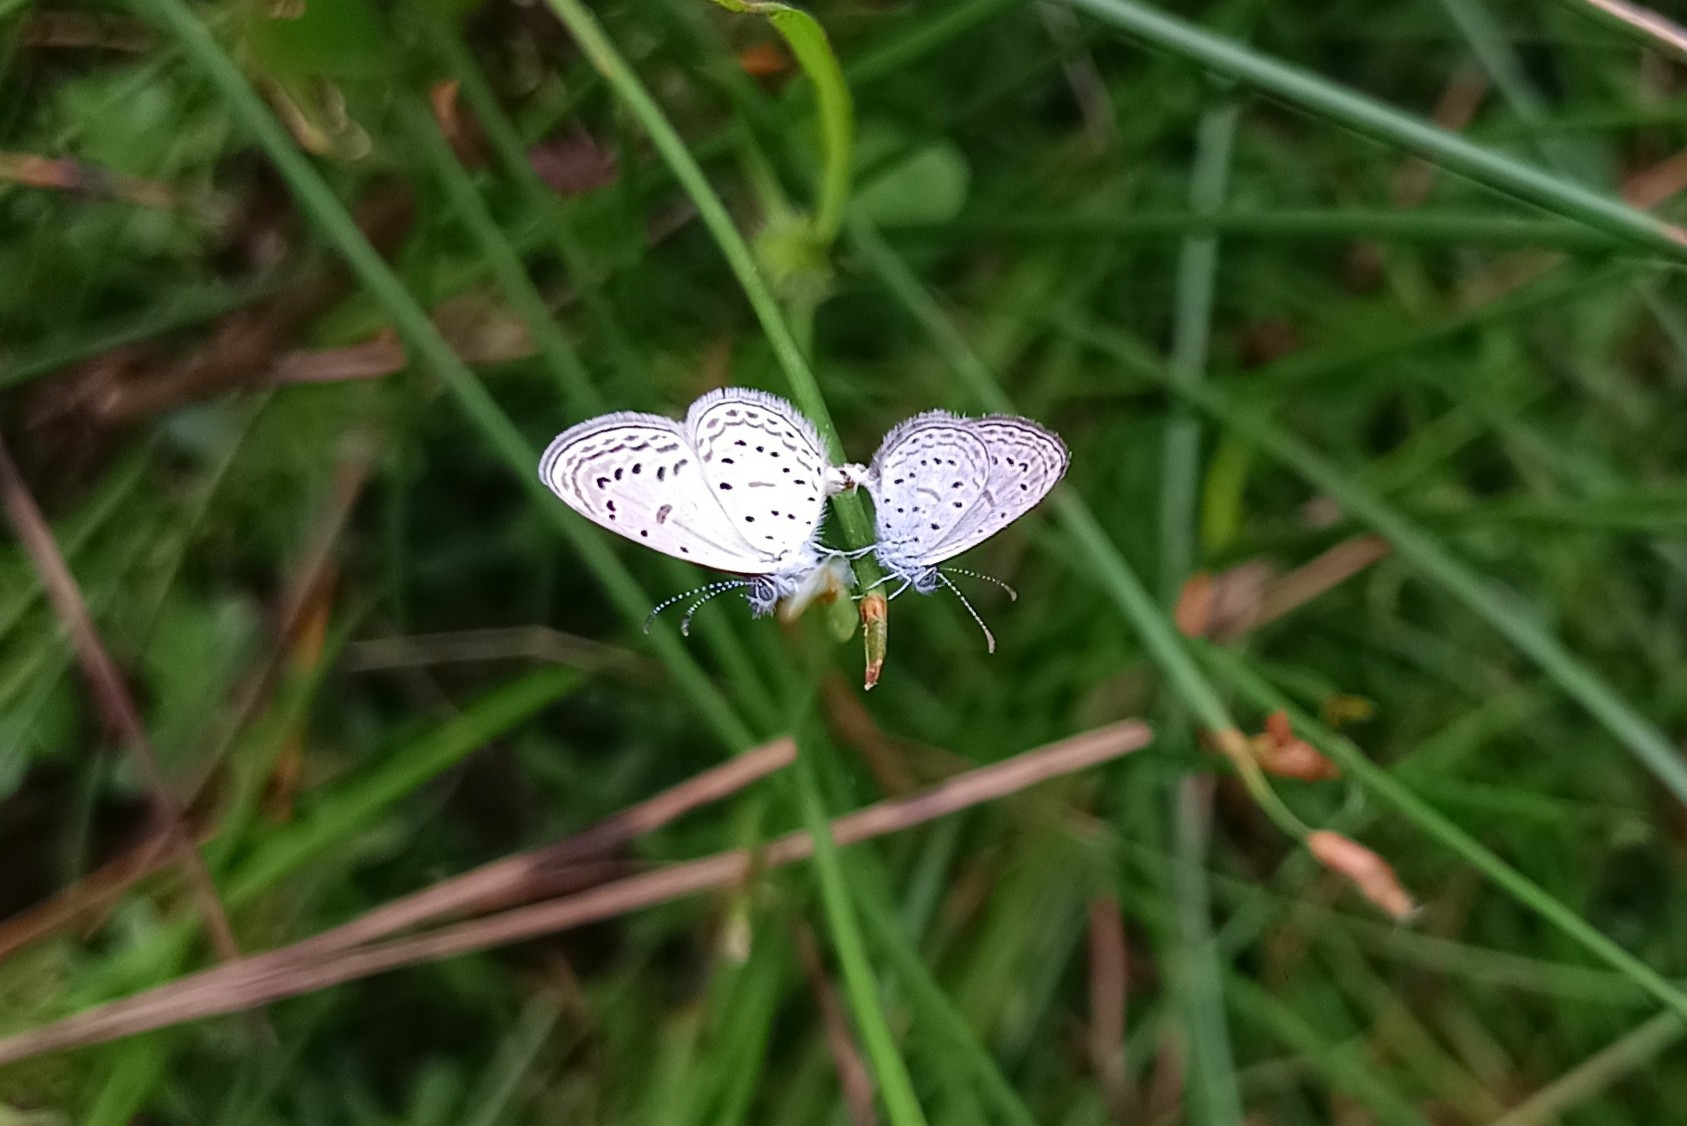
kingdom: Animalia
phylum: Arthropoda
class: Insecta
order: Lepidoptera
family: Lycaenidae
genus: Zizula
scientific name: Zizula hylax
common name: Gaika blue
